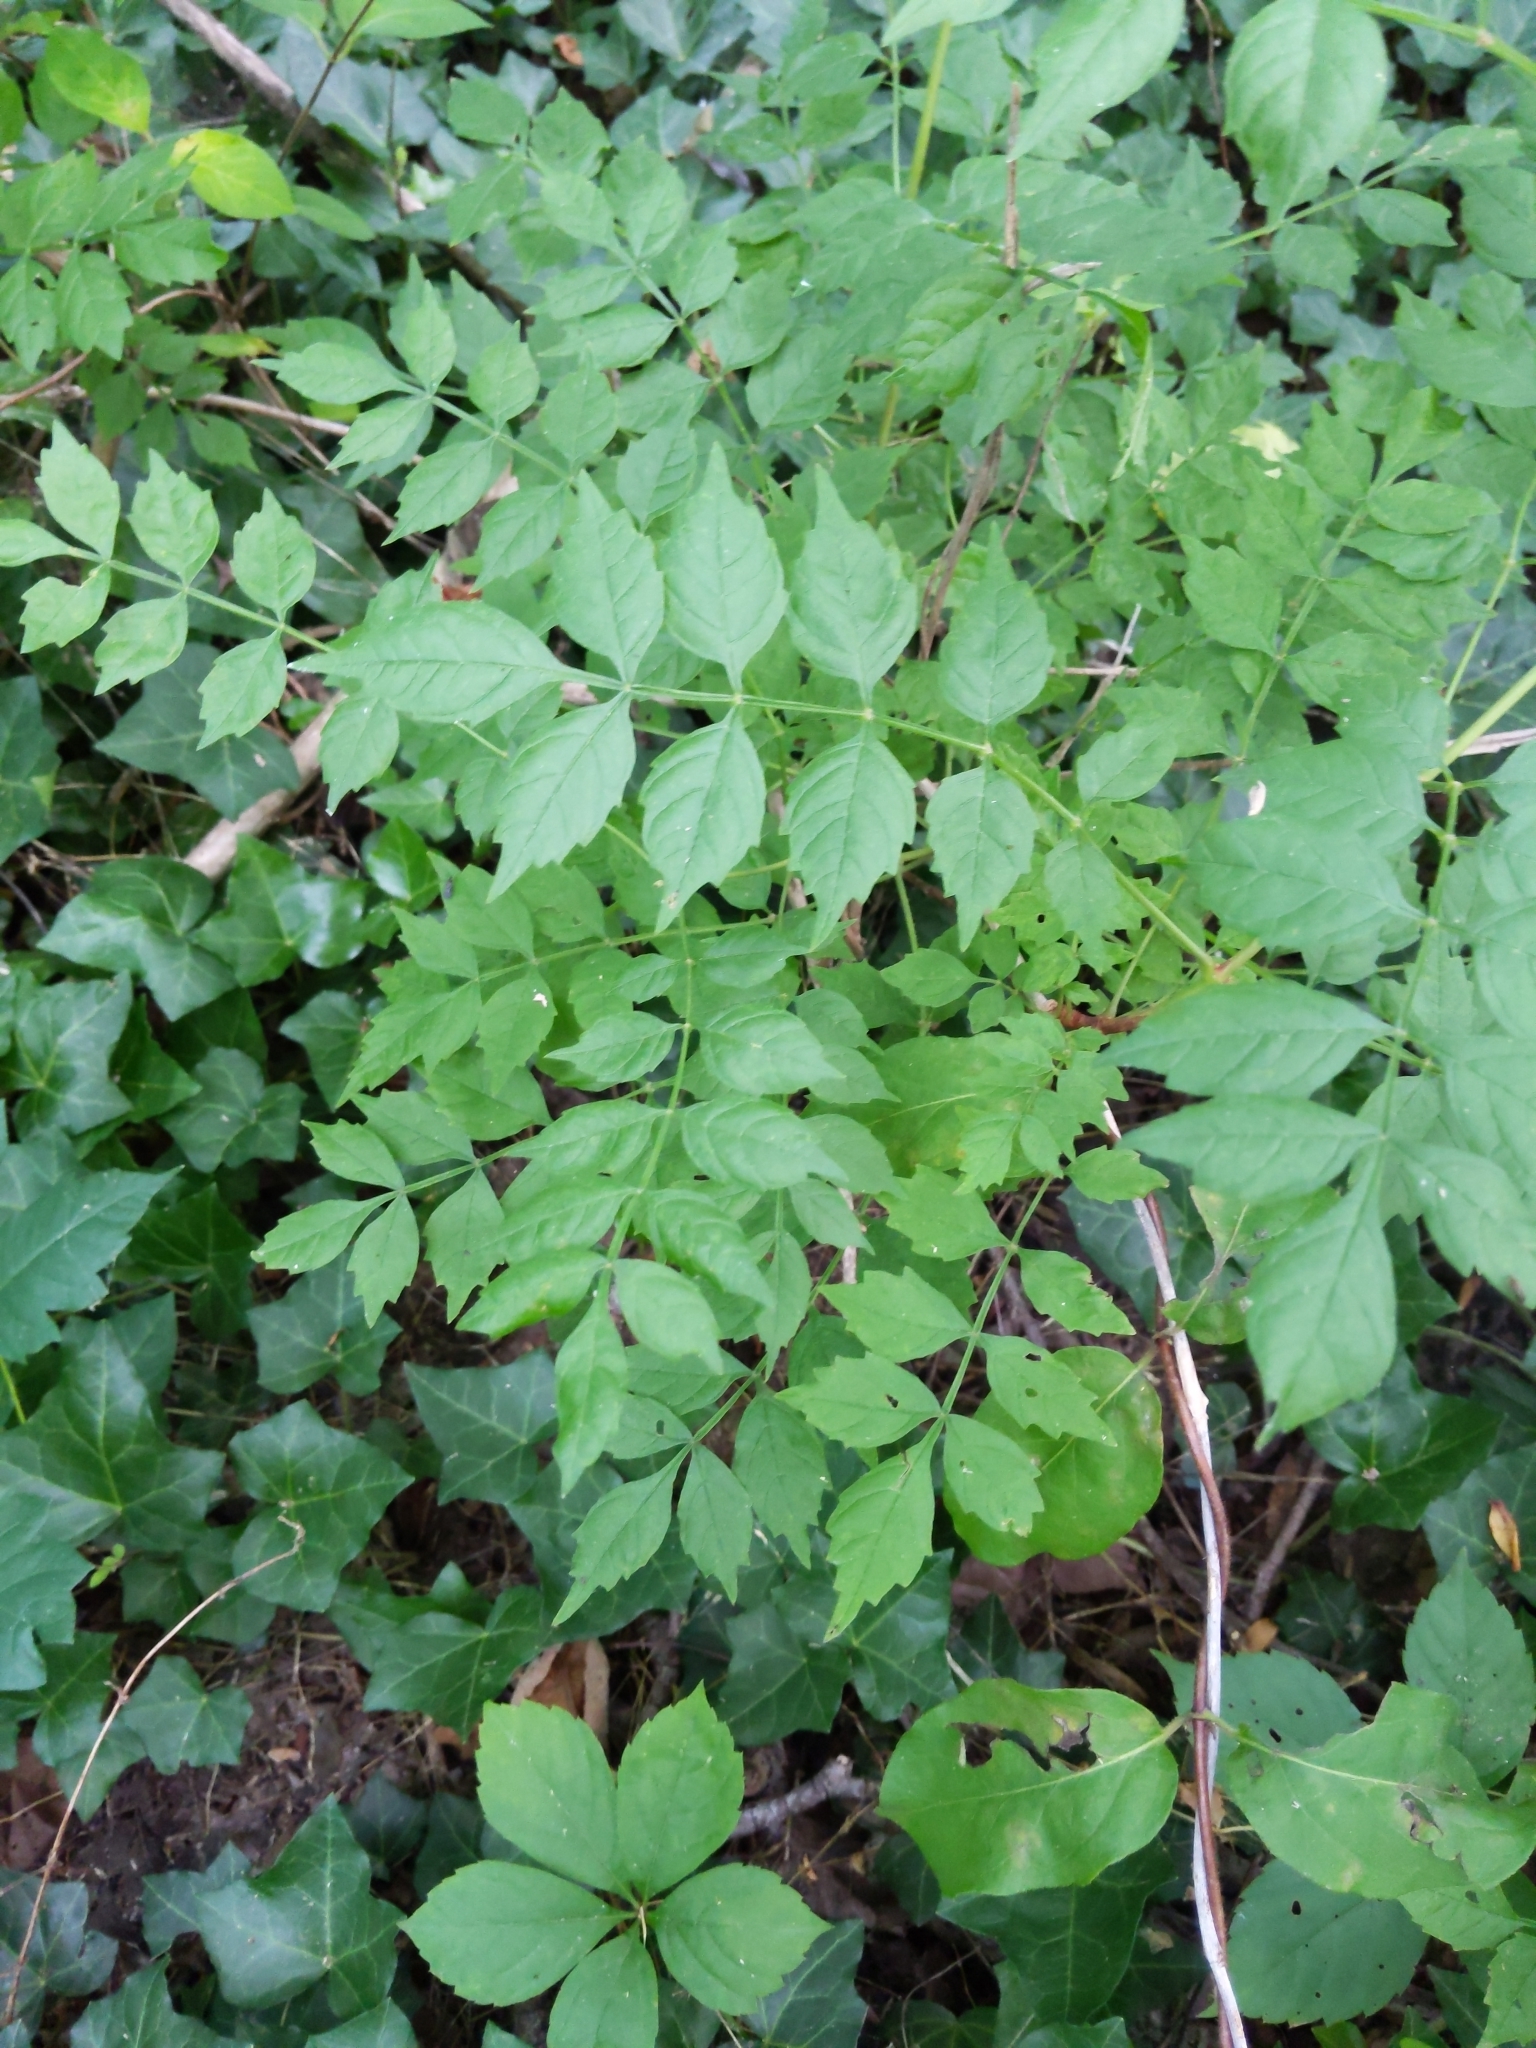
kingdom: Plantae
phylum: Tracheophyta
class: Magnoliopsida
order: Lamiales
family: Bignoniaceae
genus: Campsis
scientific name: Campsis radicans
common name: Trumpet-creeper
